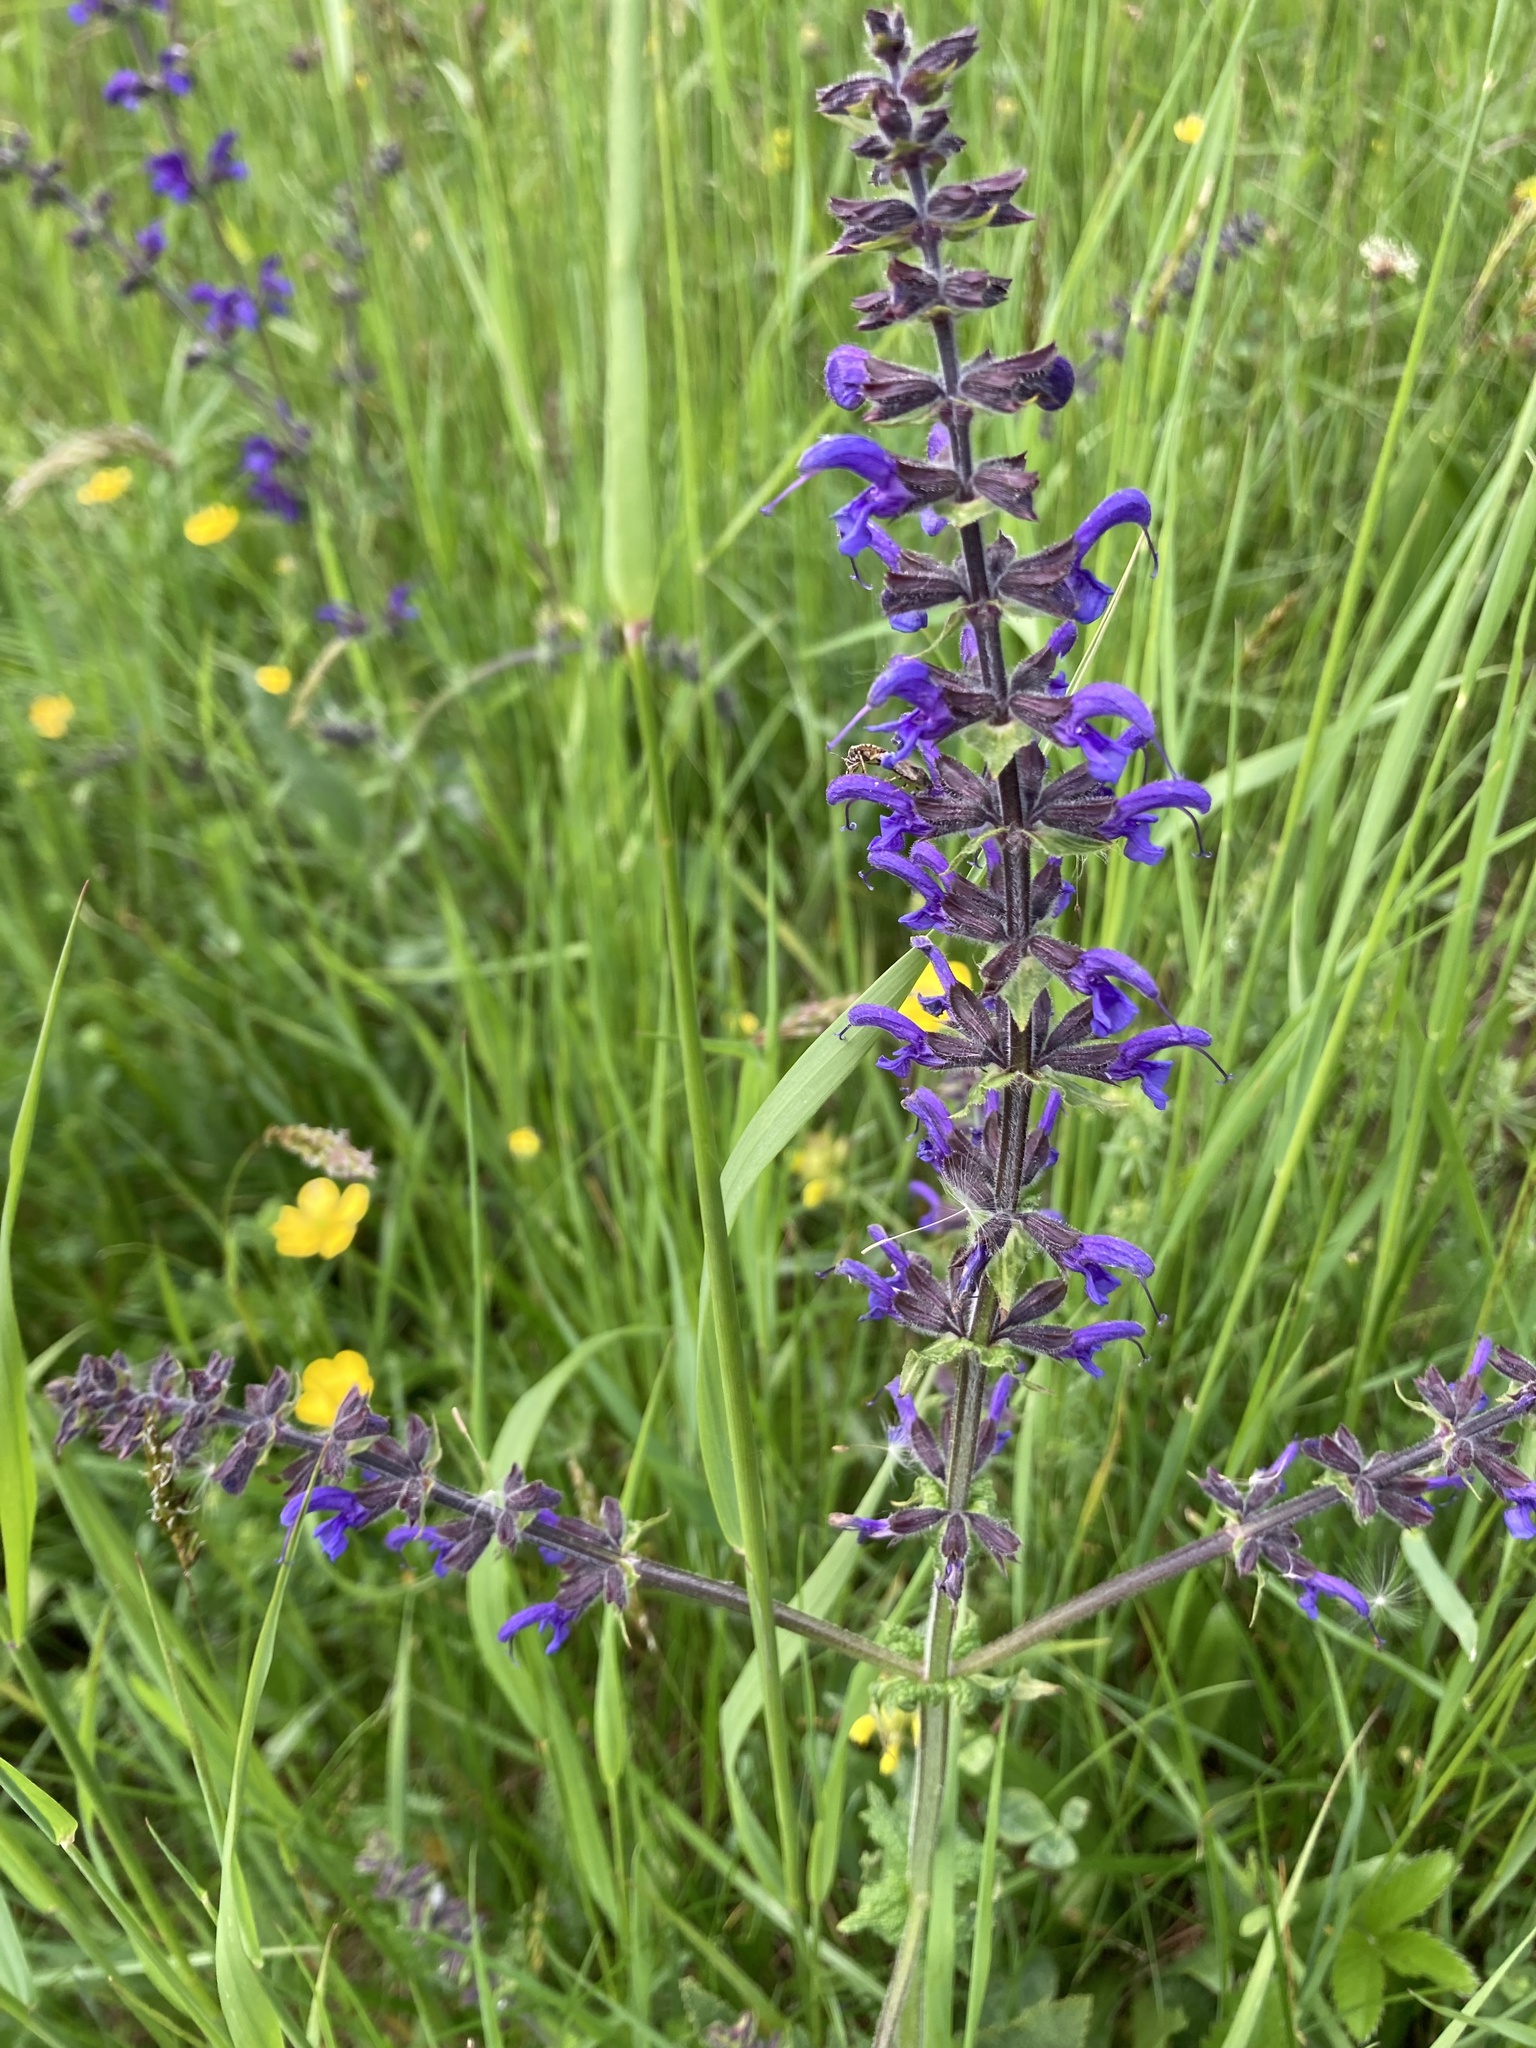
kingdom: Plantae
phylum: Tracheophyta
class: Magnoliopsida
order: Lamiales
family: Lamiaceae
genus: Salvia
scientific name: Salvia pratensis
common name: Meadow sage
